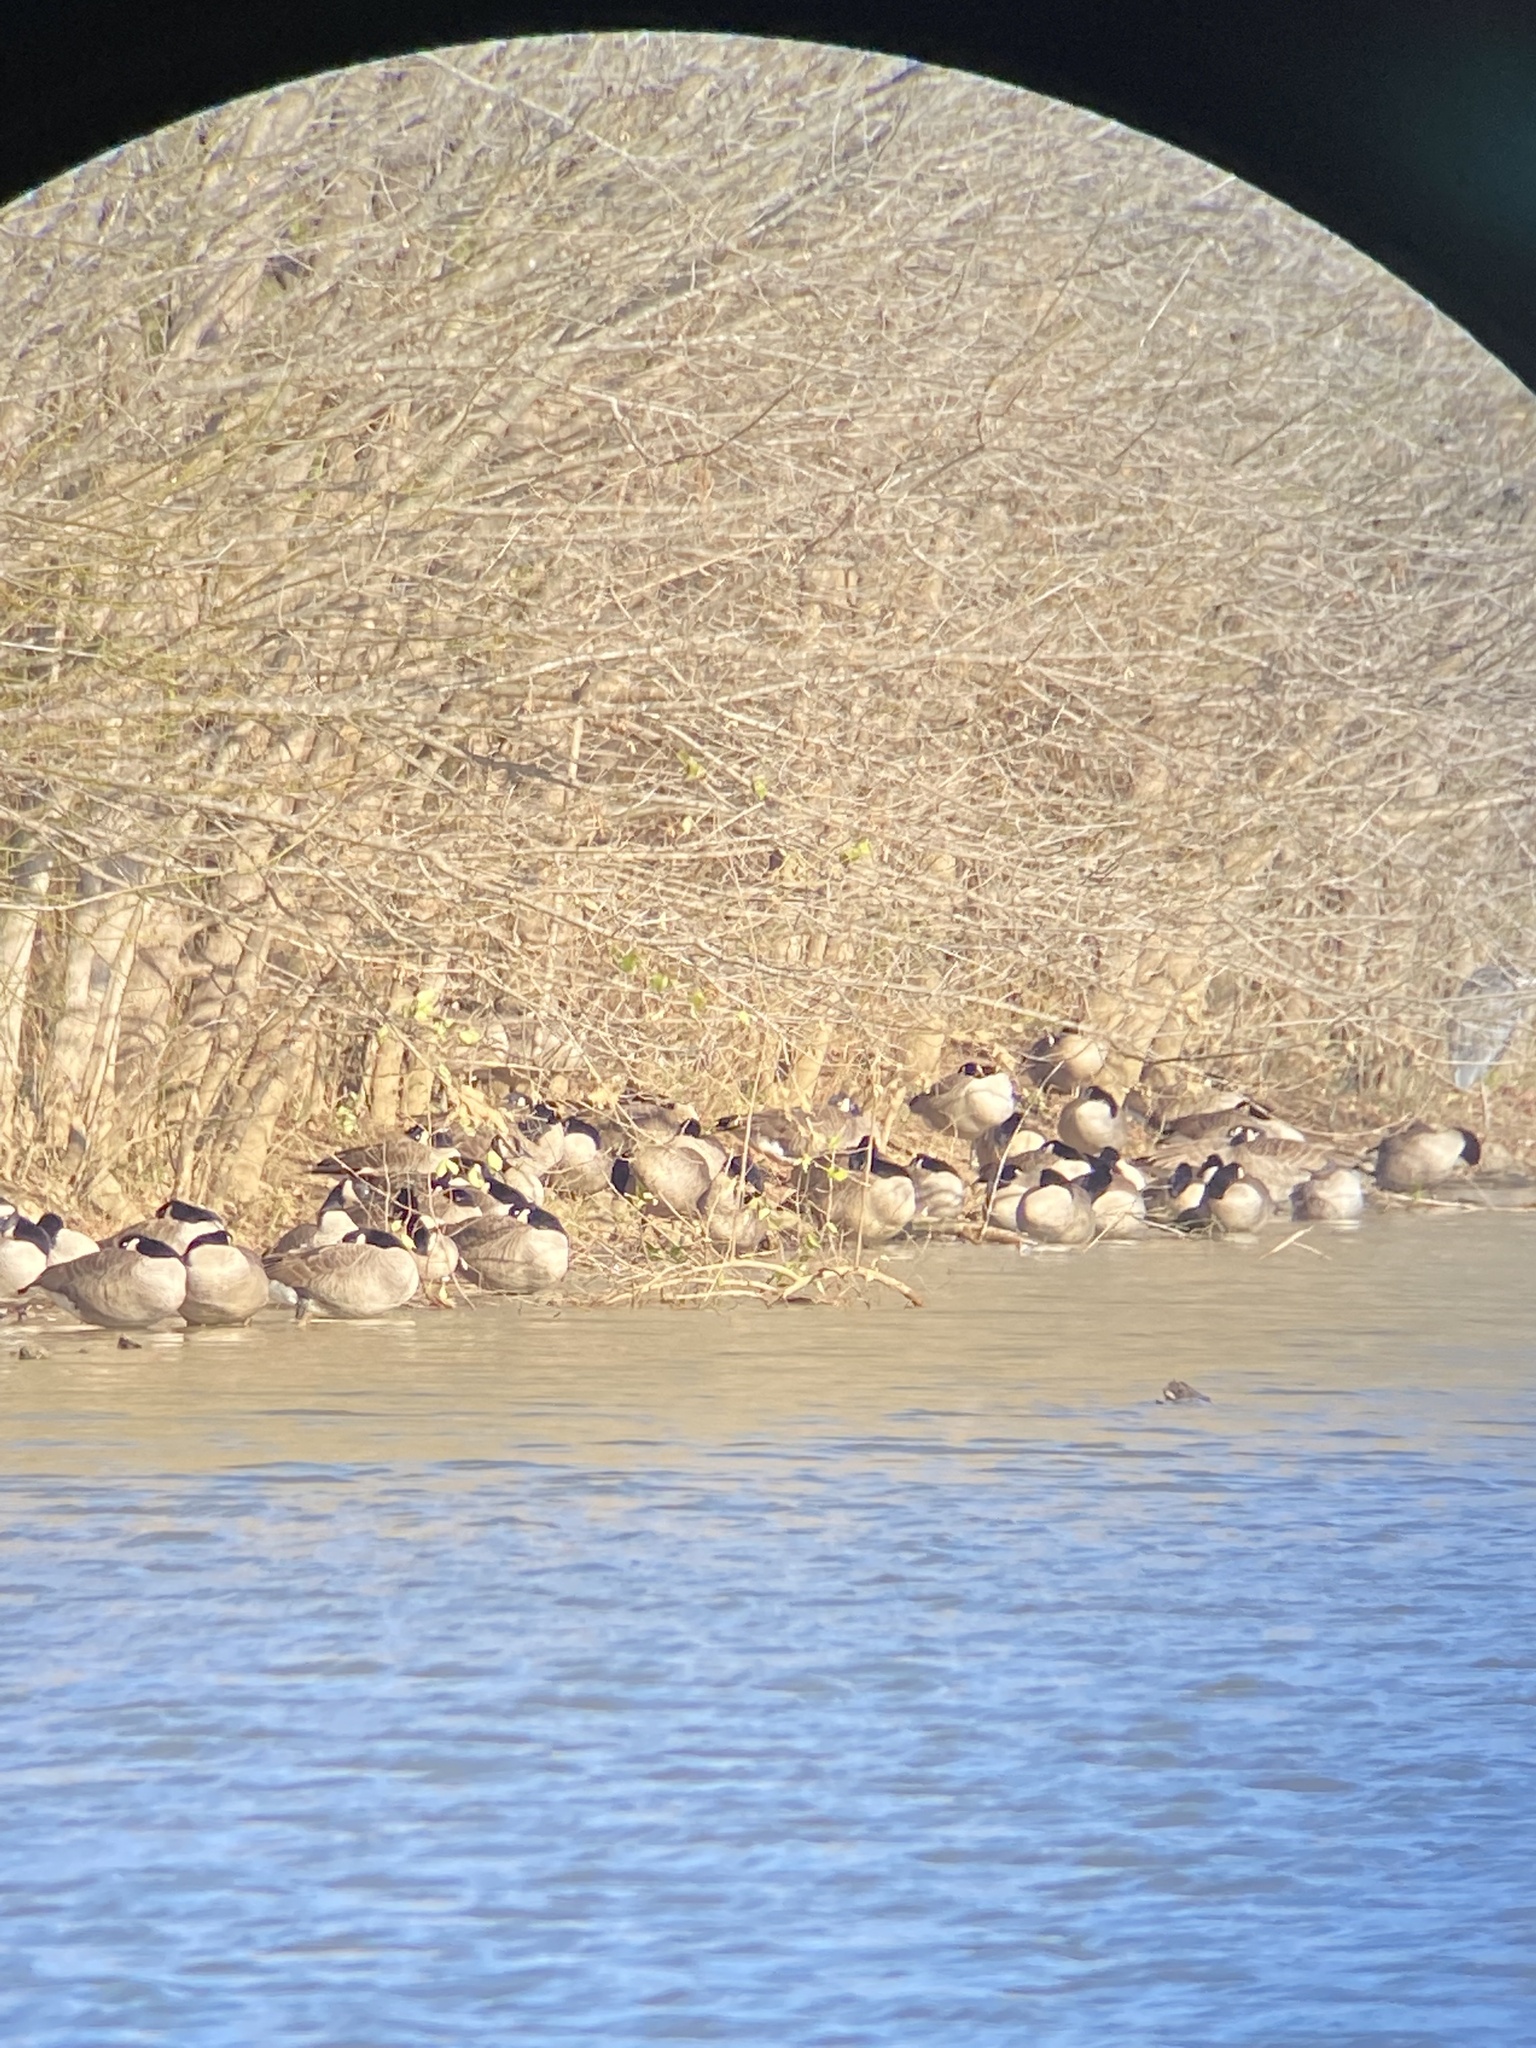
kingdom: Animalia
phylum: Chordata
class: Aves
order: Anseriformes
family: Anatidae
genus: Branta
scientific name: Branta canadensis
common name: Canada goose
